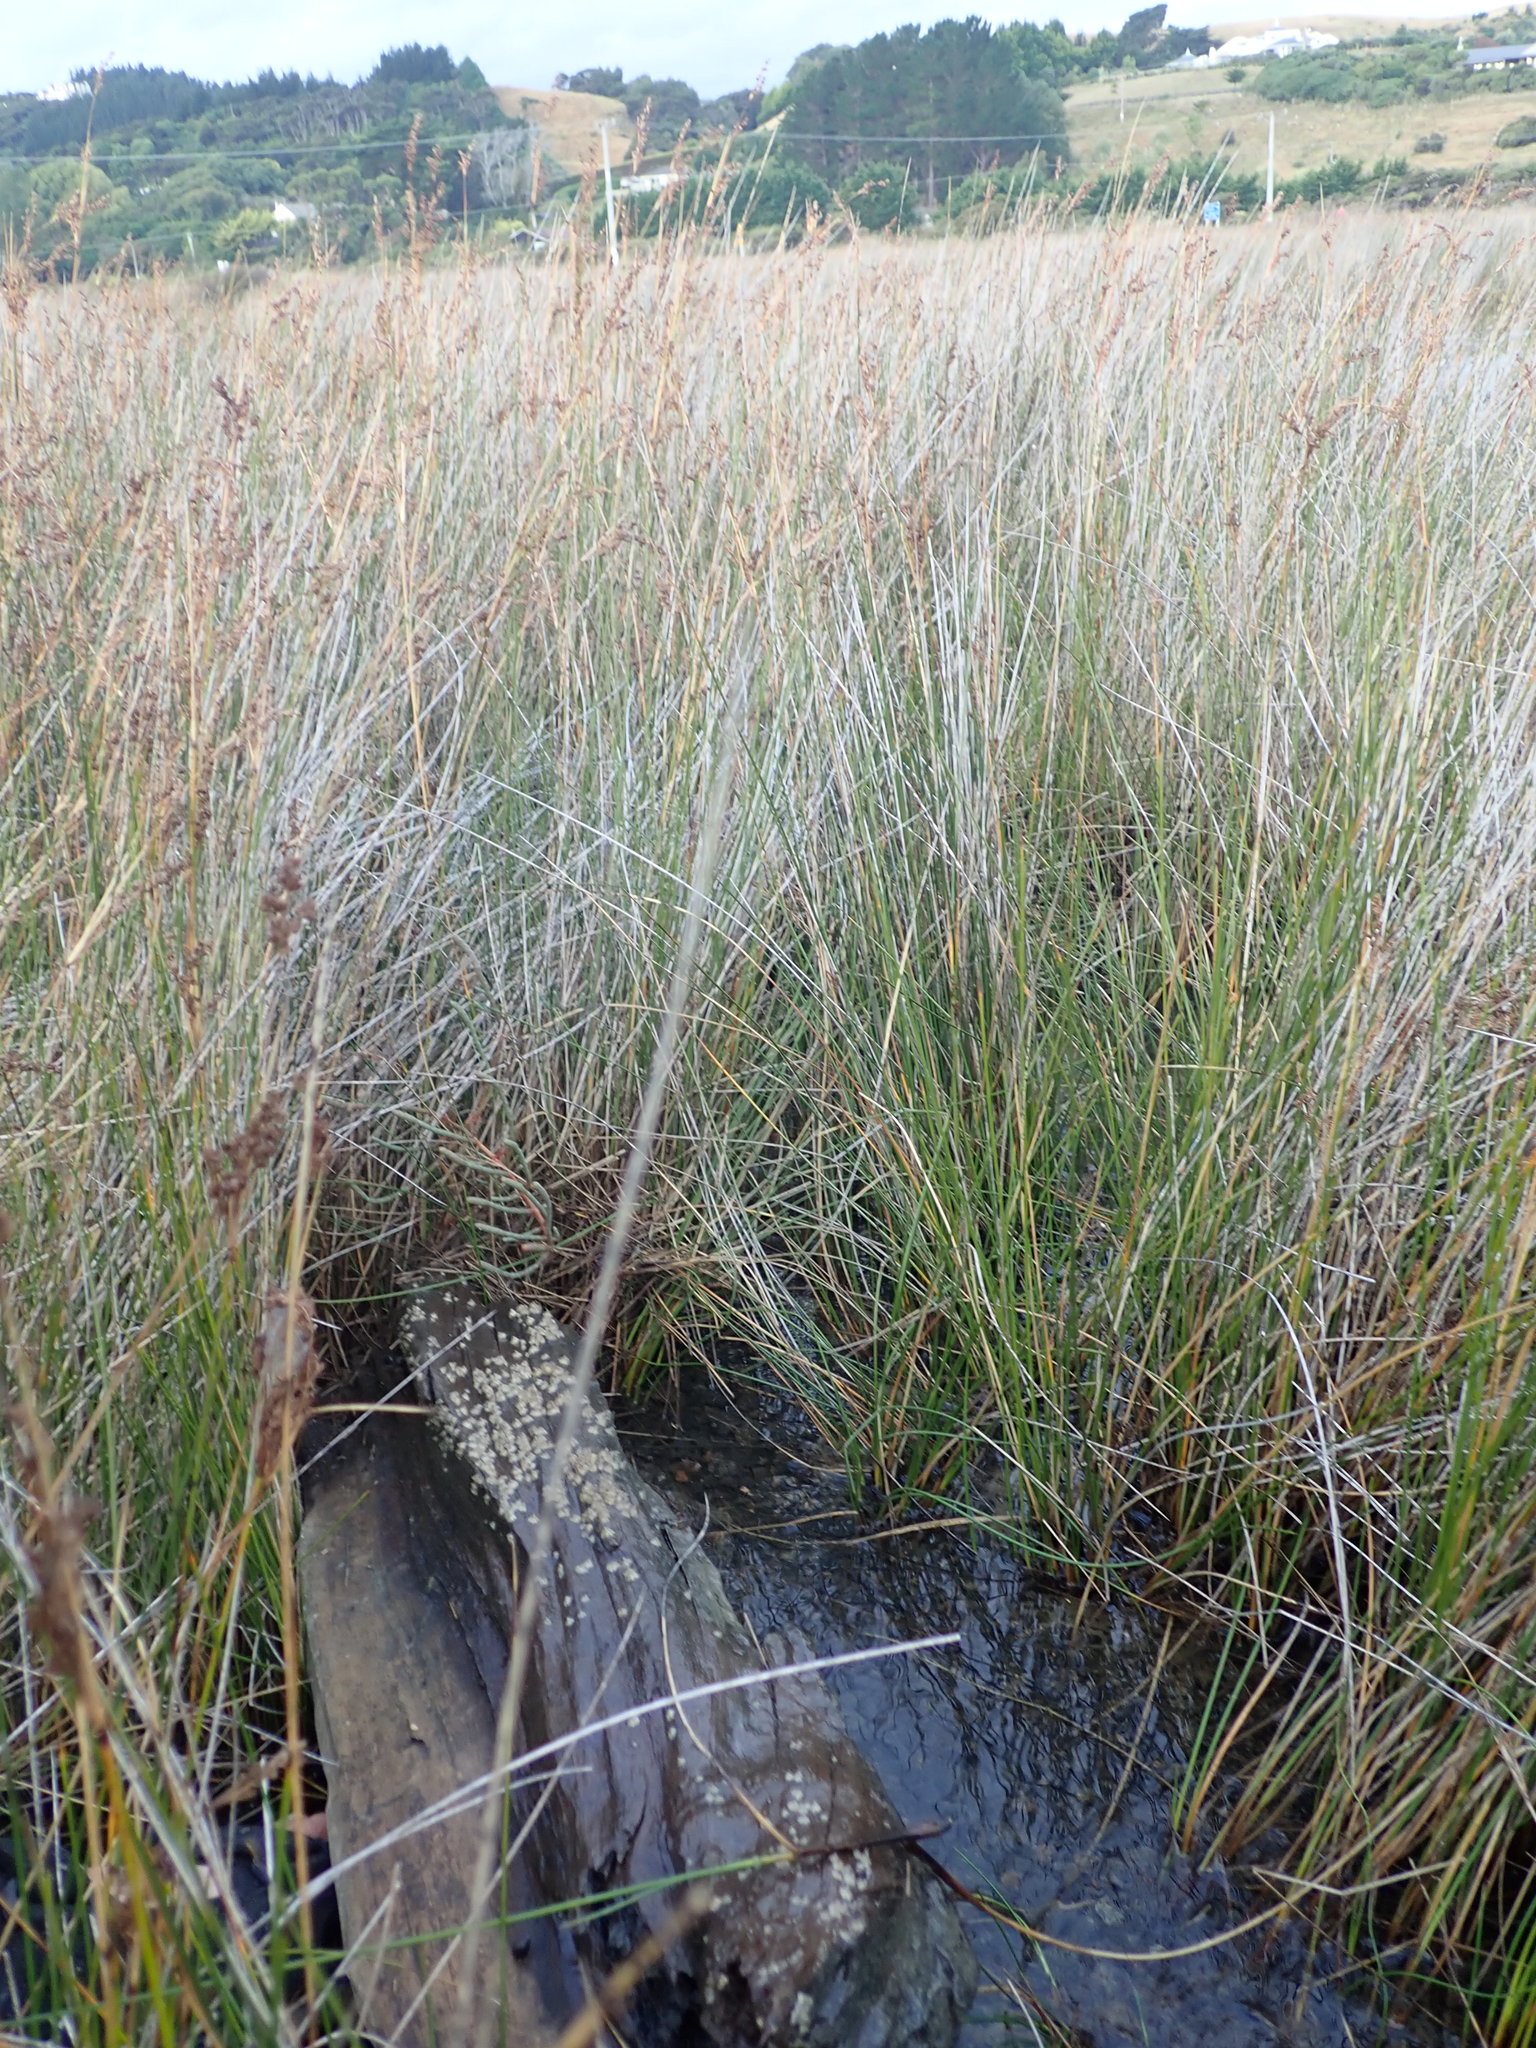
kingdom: Animalia
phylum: Arthropoda
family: Elminiidae
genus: Austrominius
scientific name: Austrominius modestus
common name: Australasian barnacle
